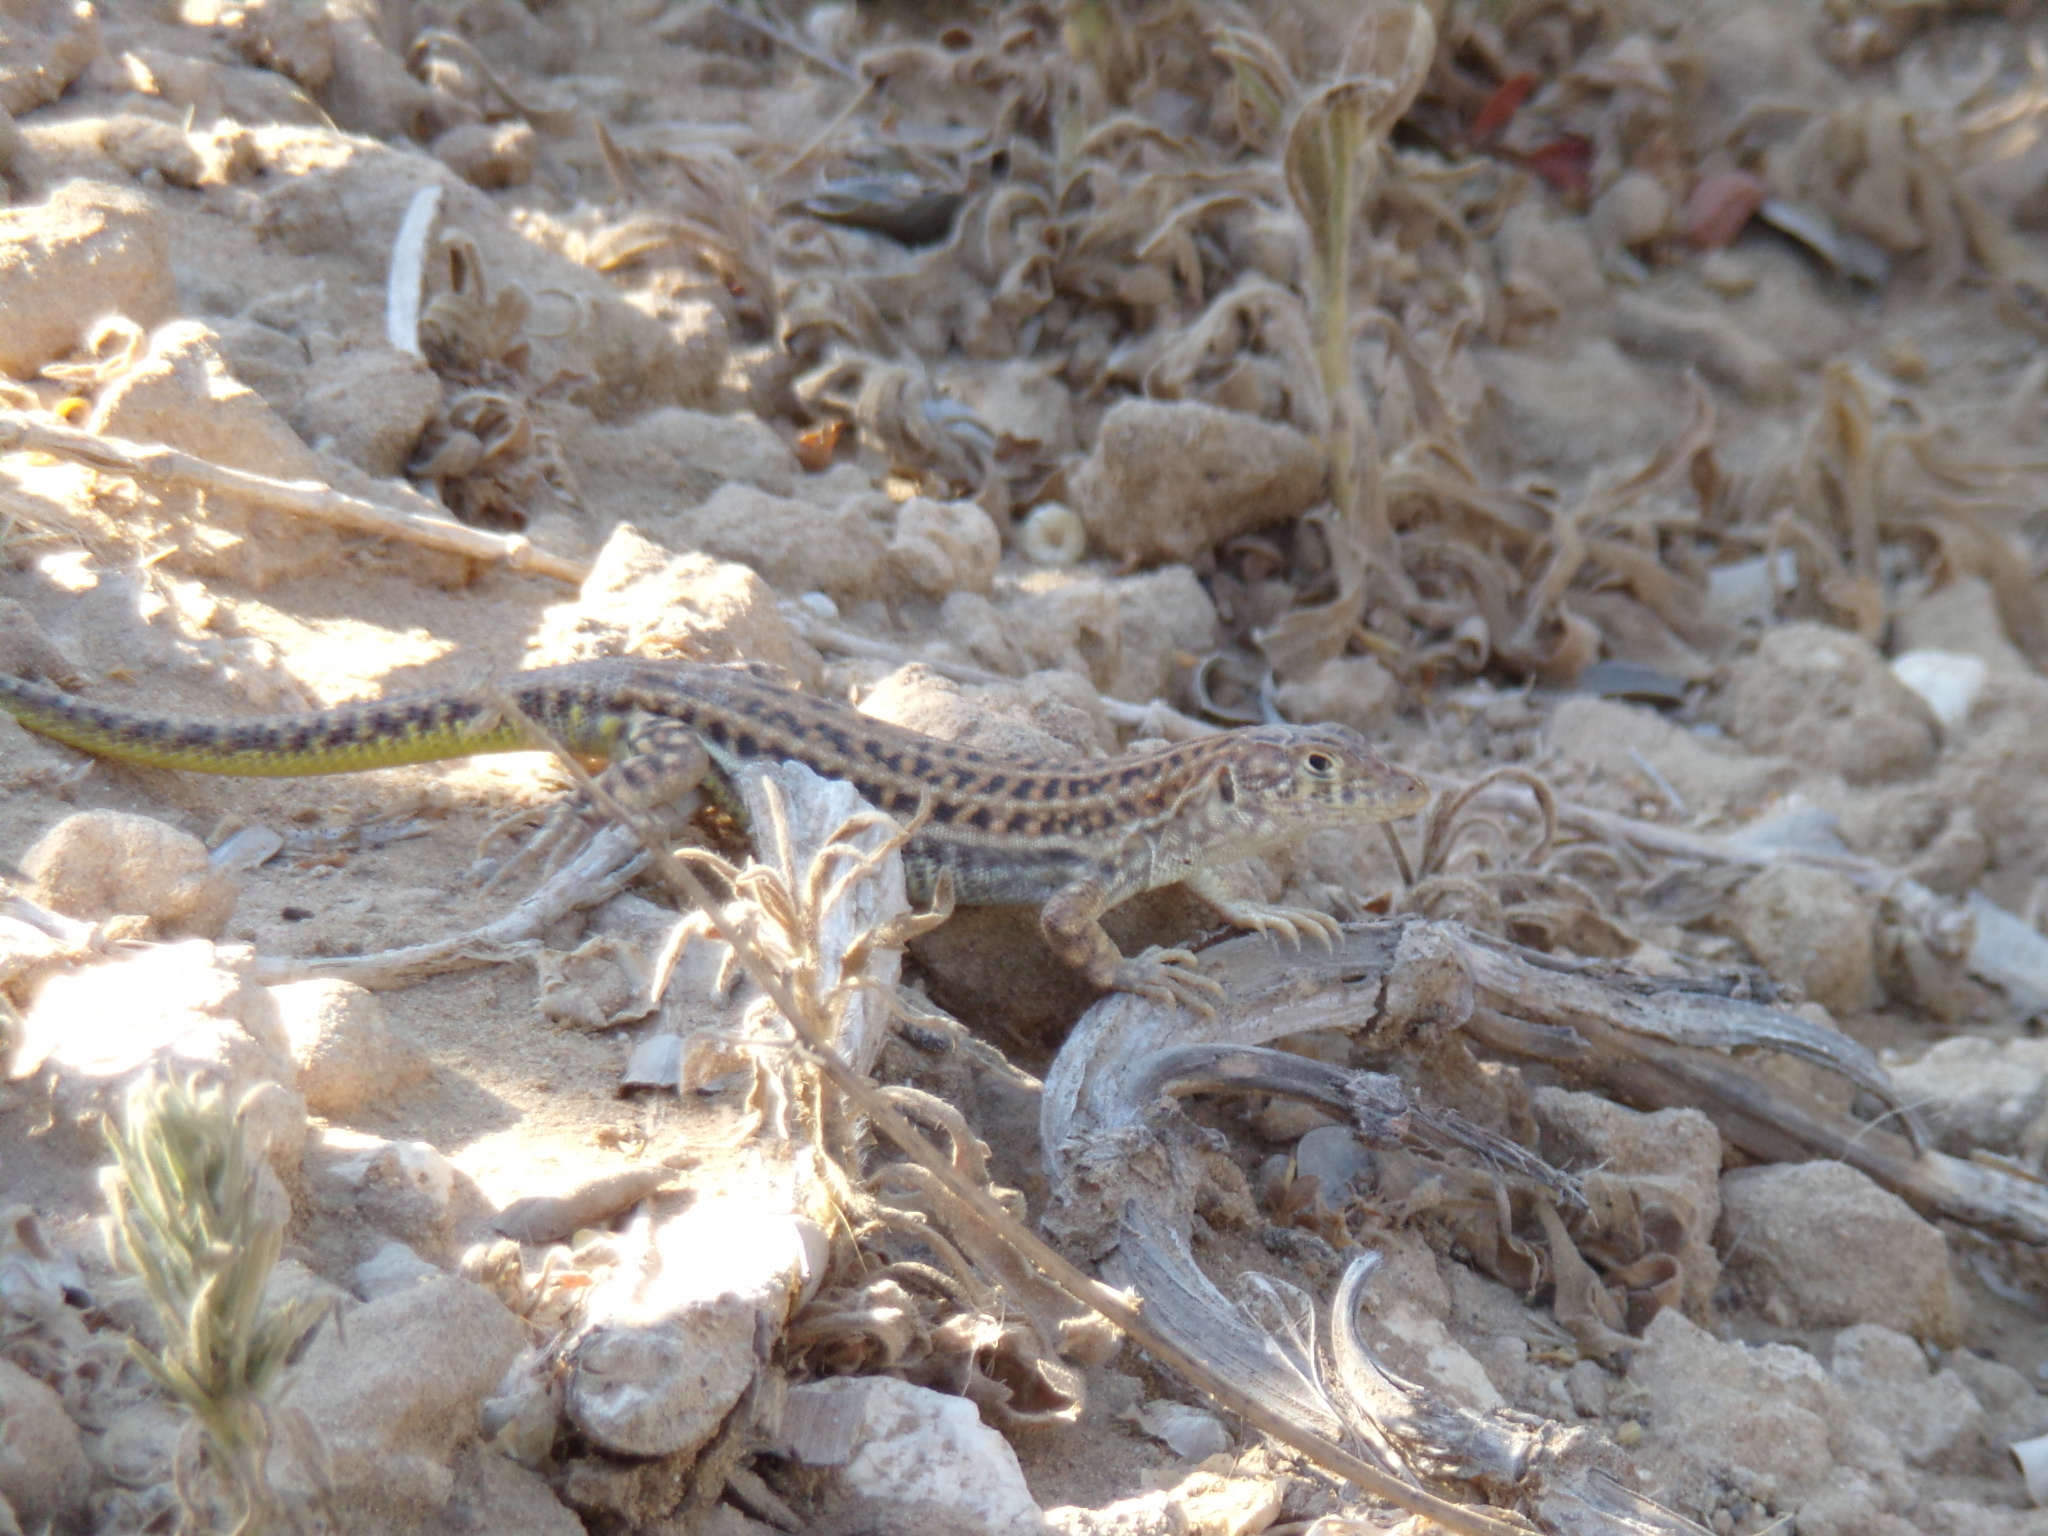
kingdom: Animalia
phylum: Chordata
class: Squamata
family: Lacertidae
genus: Acanthodactylus
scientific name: Acanthodactylus schreiberi
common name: Schreiber's fringe-fingered lizard
